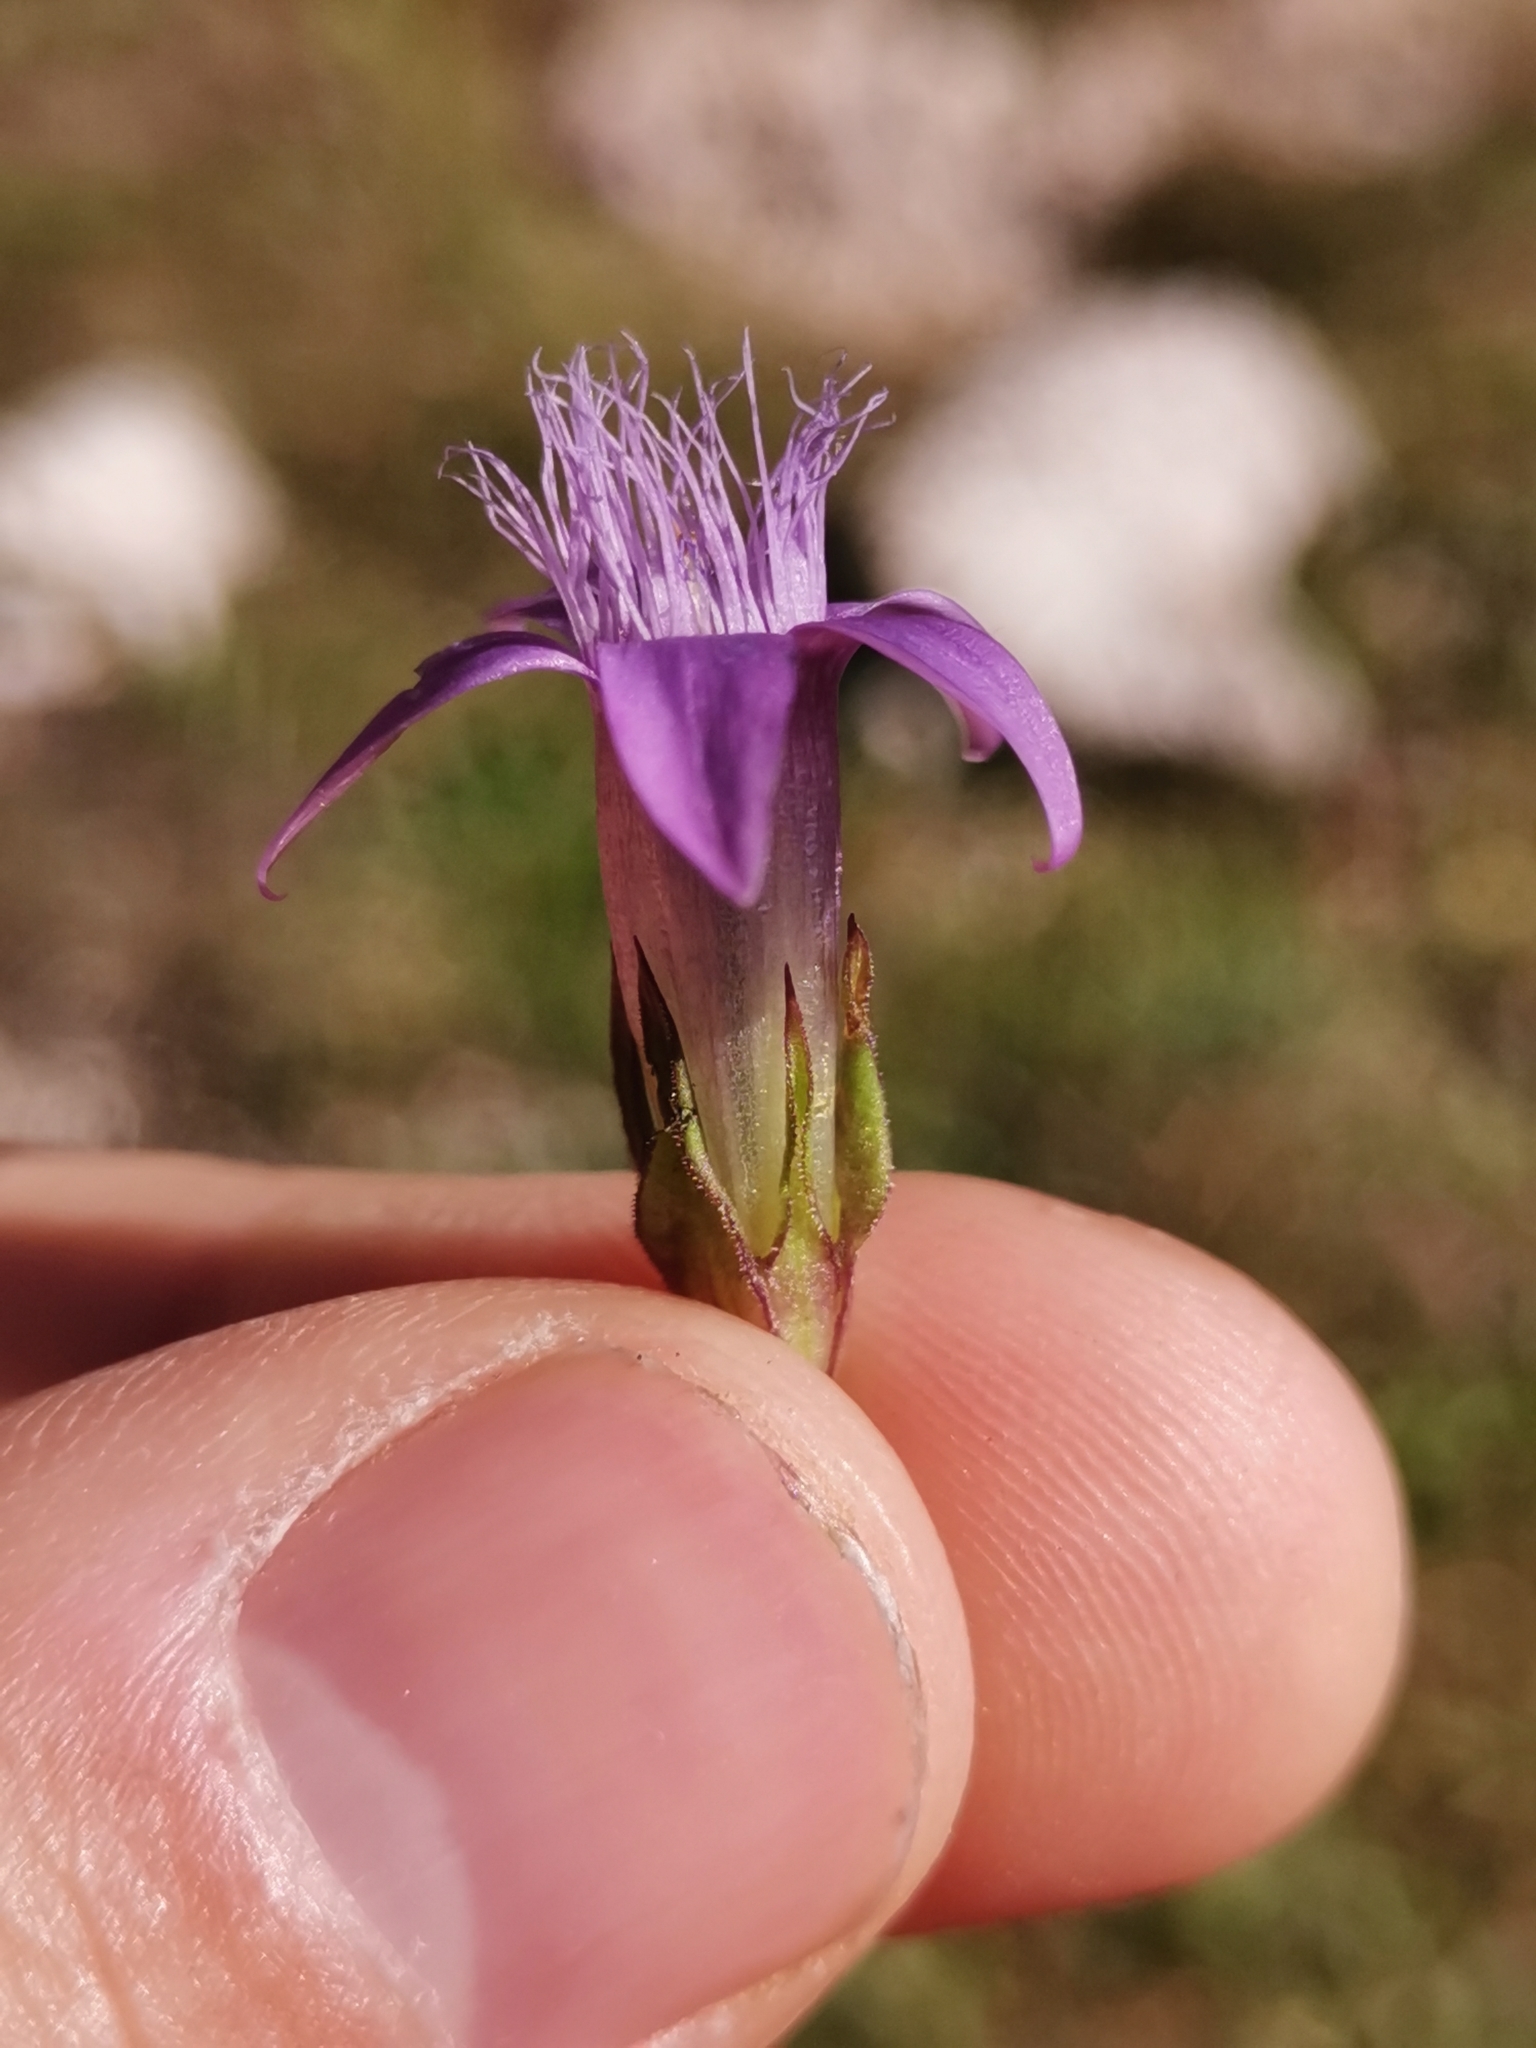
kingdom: Plantae
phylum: Tracheophyta
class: Magnoliopsida
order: Gentianales
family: Gentianaceae
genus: Gentianella
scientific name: Gentianella anisodonta
